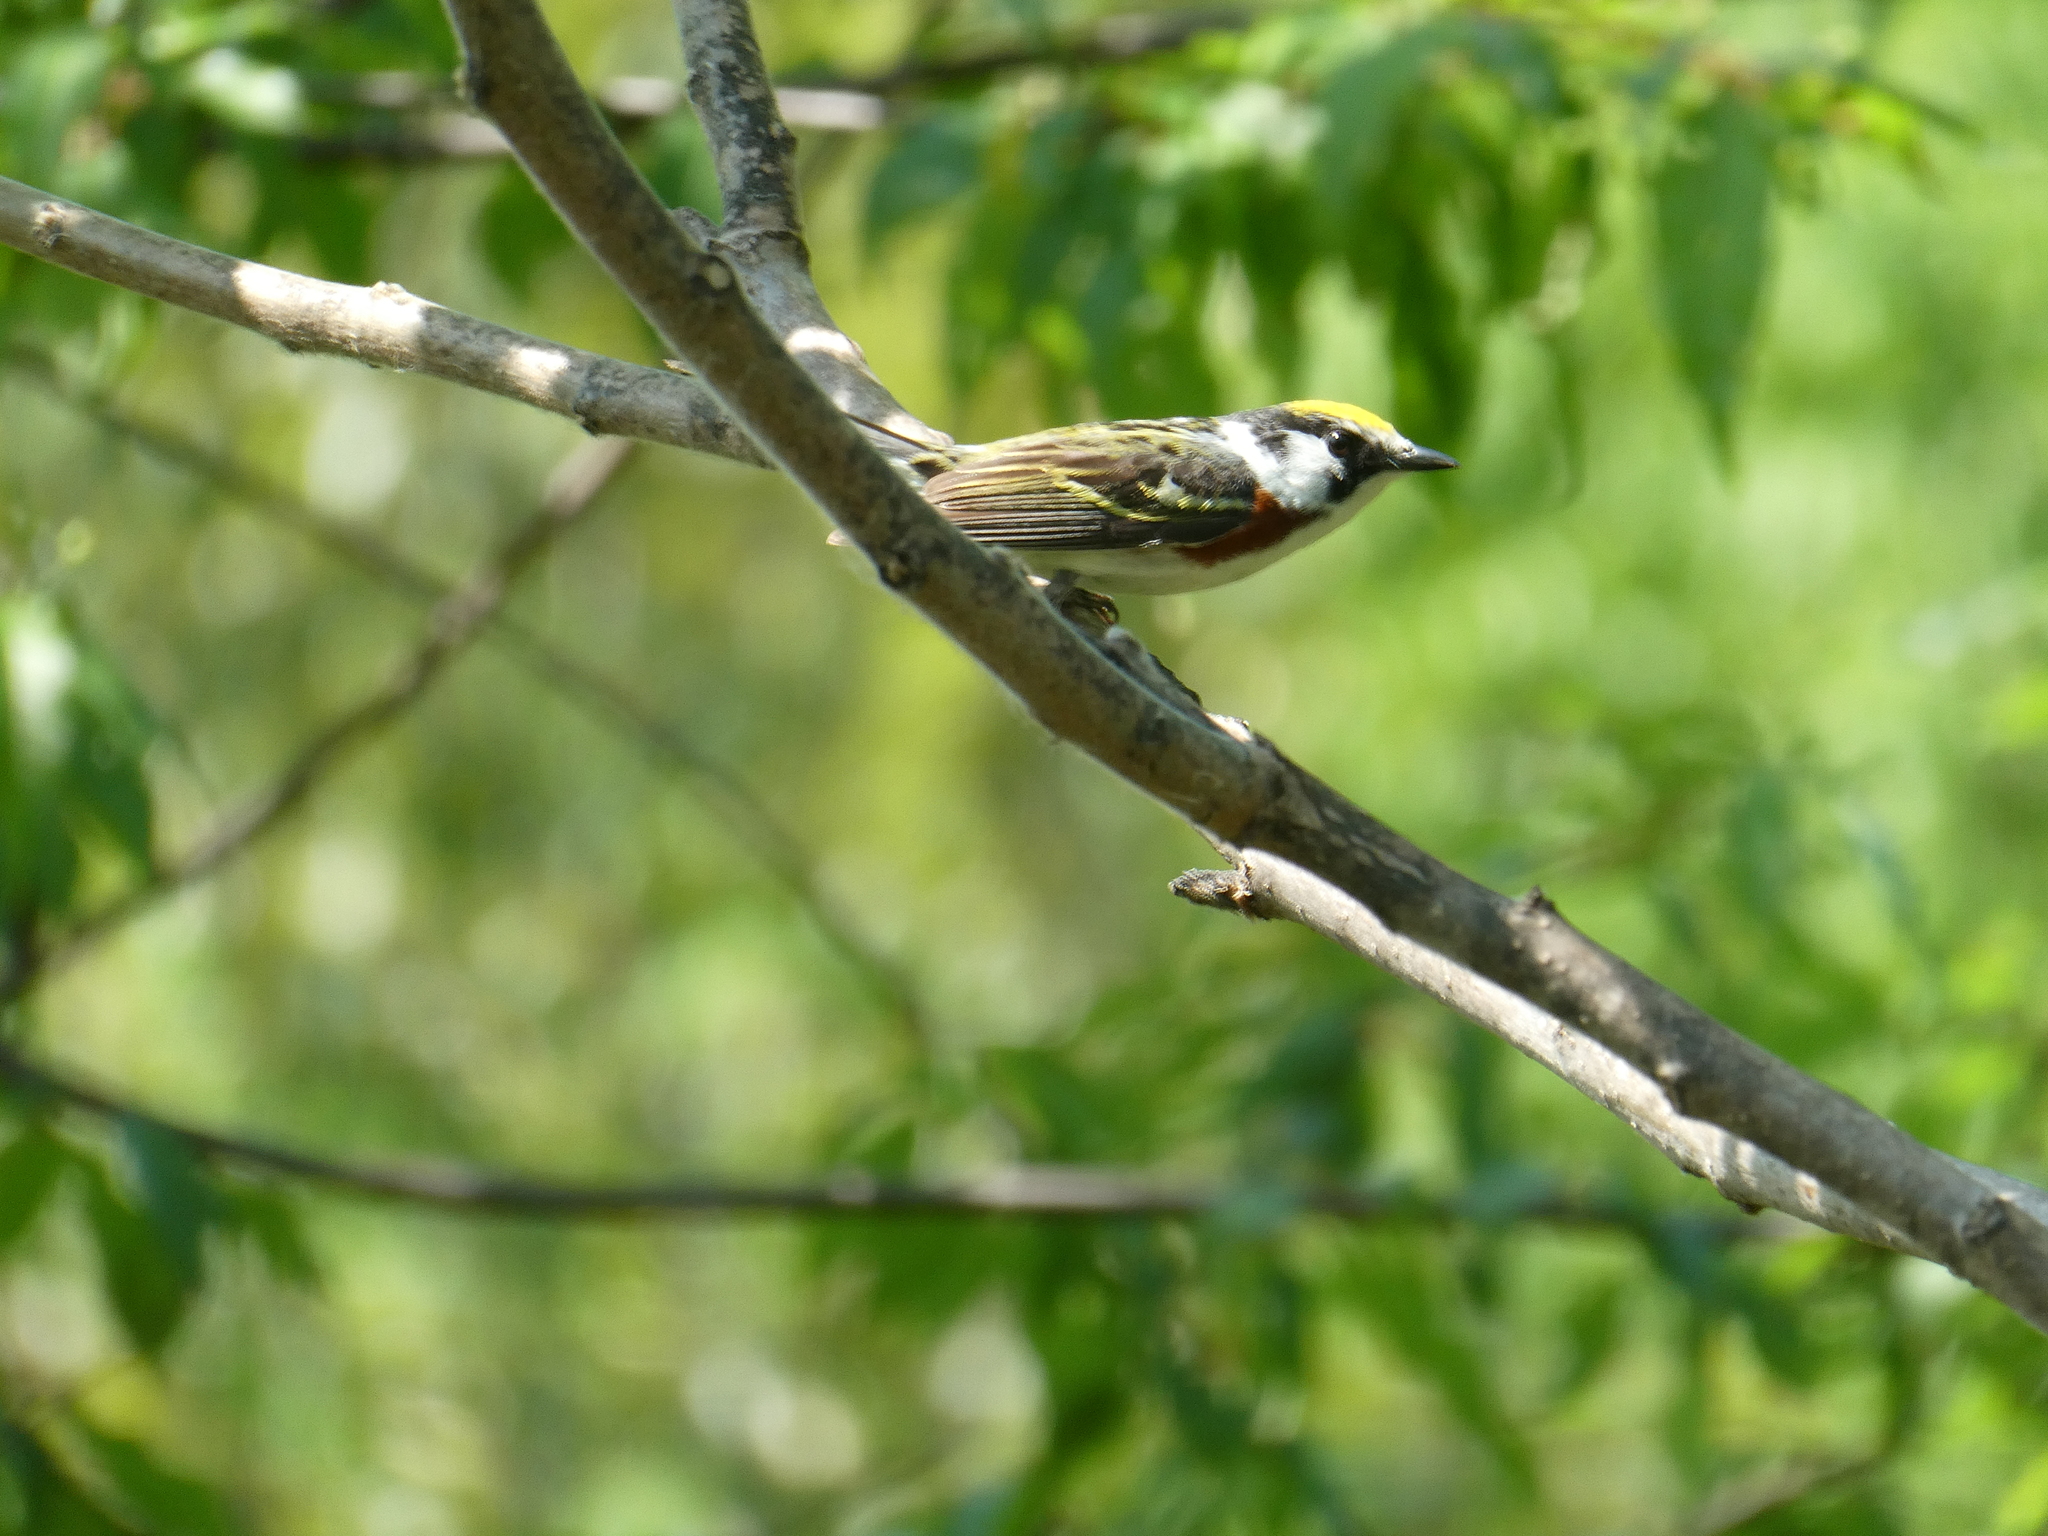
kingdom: Animalia
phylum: Chordata
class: Aves
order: Passeriformes
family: Parulidae
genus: Setophaga
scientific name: Setophaga pensylvanica
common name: Chestnut-sided warbler
